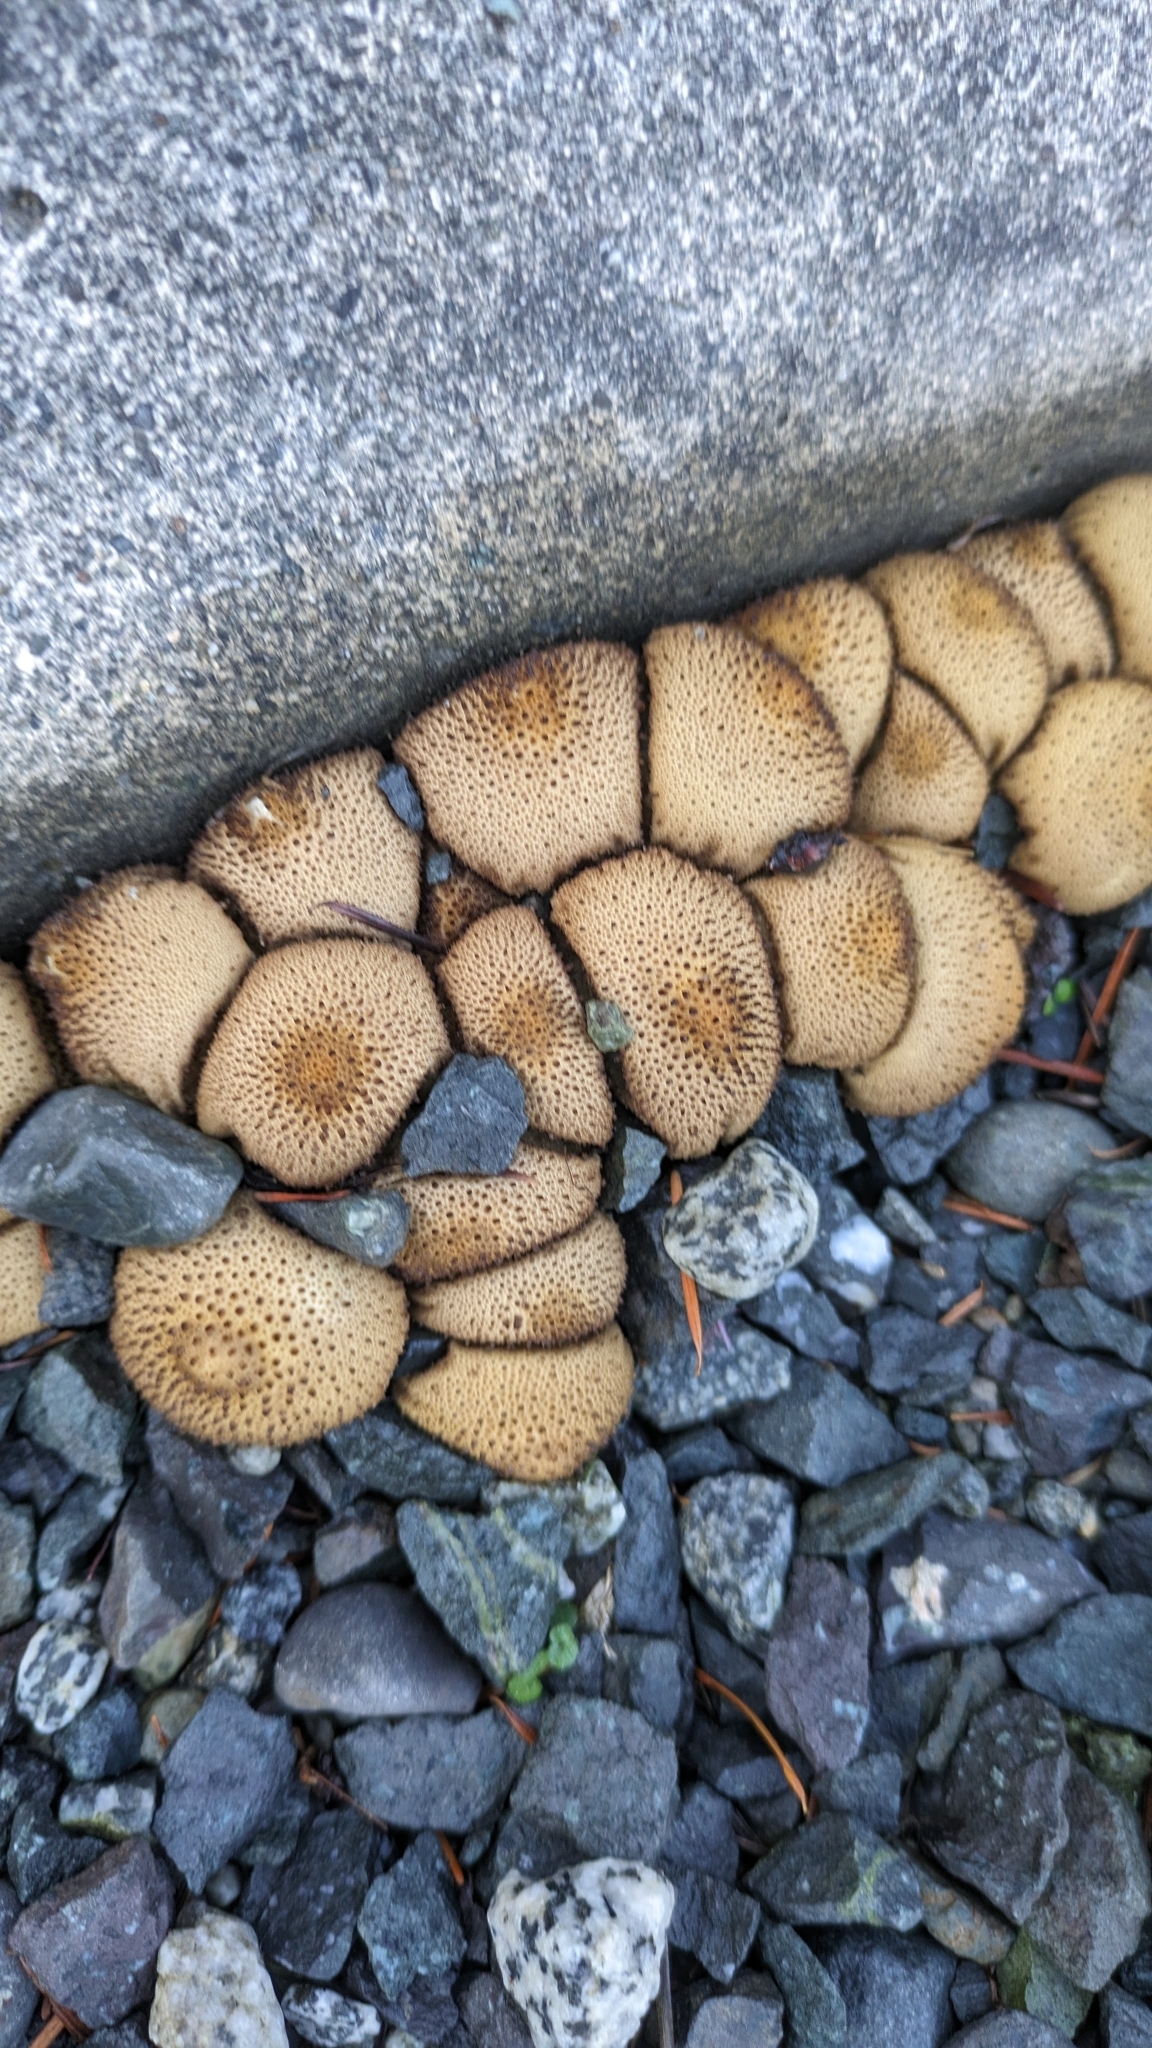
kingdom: Fungi
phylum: Basidiomycota
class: Agaricomycetes
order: Agaricales
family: Lycoperdaceae
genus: Lycoperdon
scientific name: Lycoperdon perlatum
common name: Common puffball
